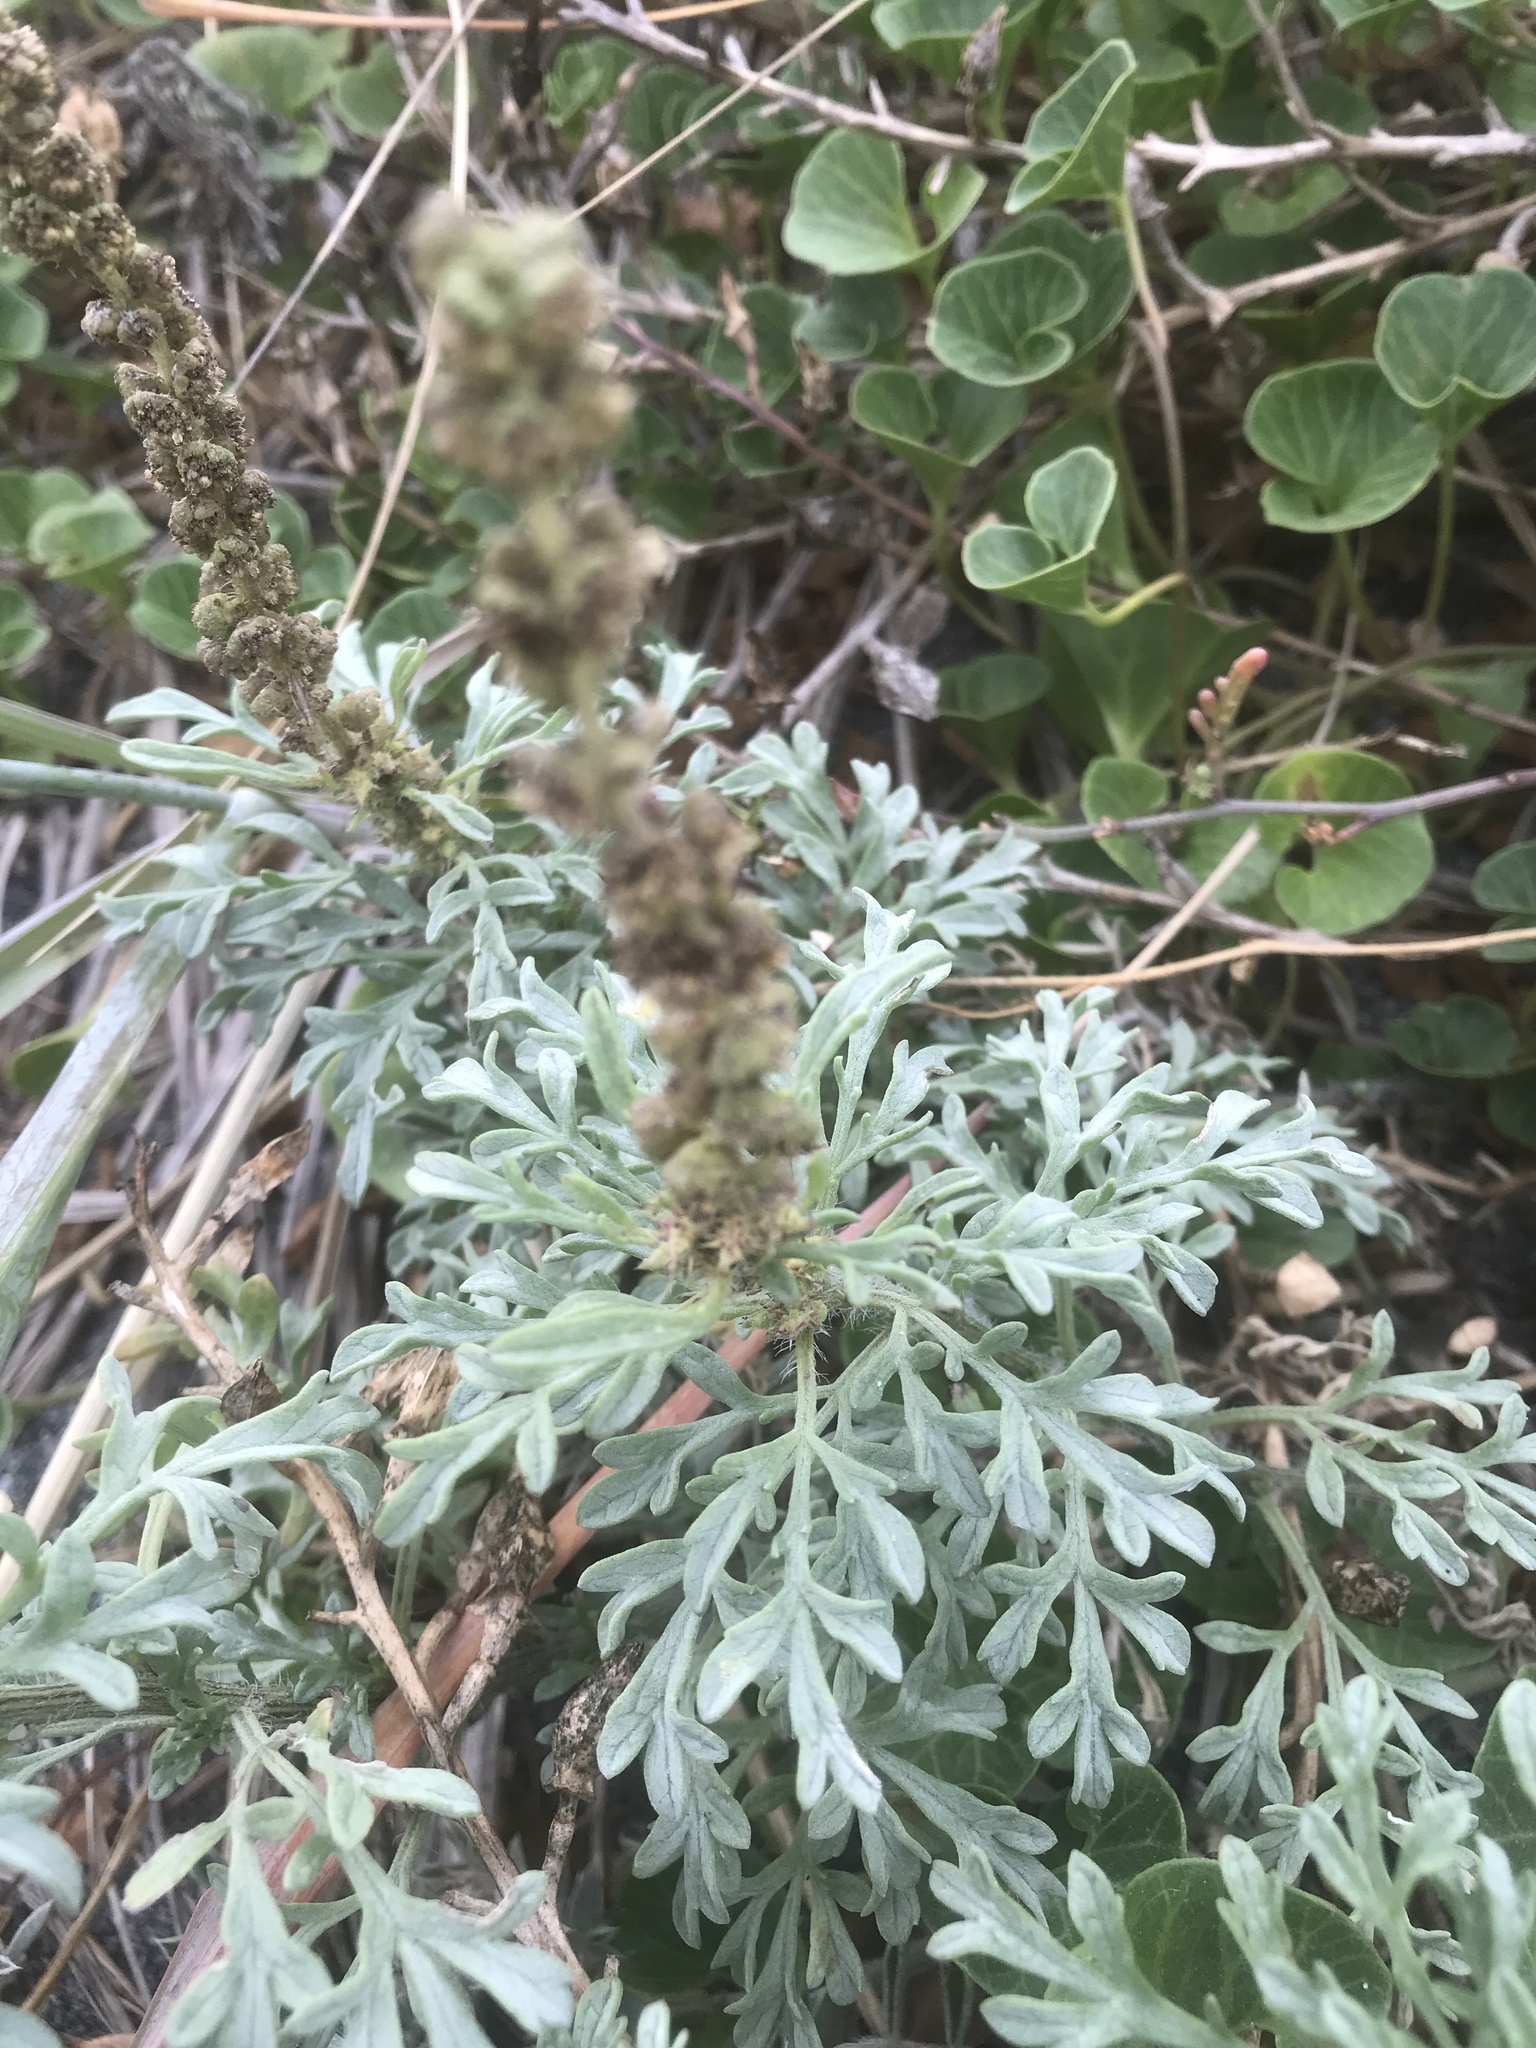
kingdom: Plantae
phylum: Tracheophyta
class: Magnoliopsida
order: Asterales
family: Asteraceae
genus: Ambrosia
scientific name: Ambrosia chamissonis
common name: Beachbur
